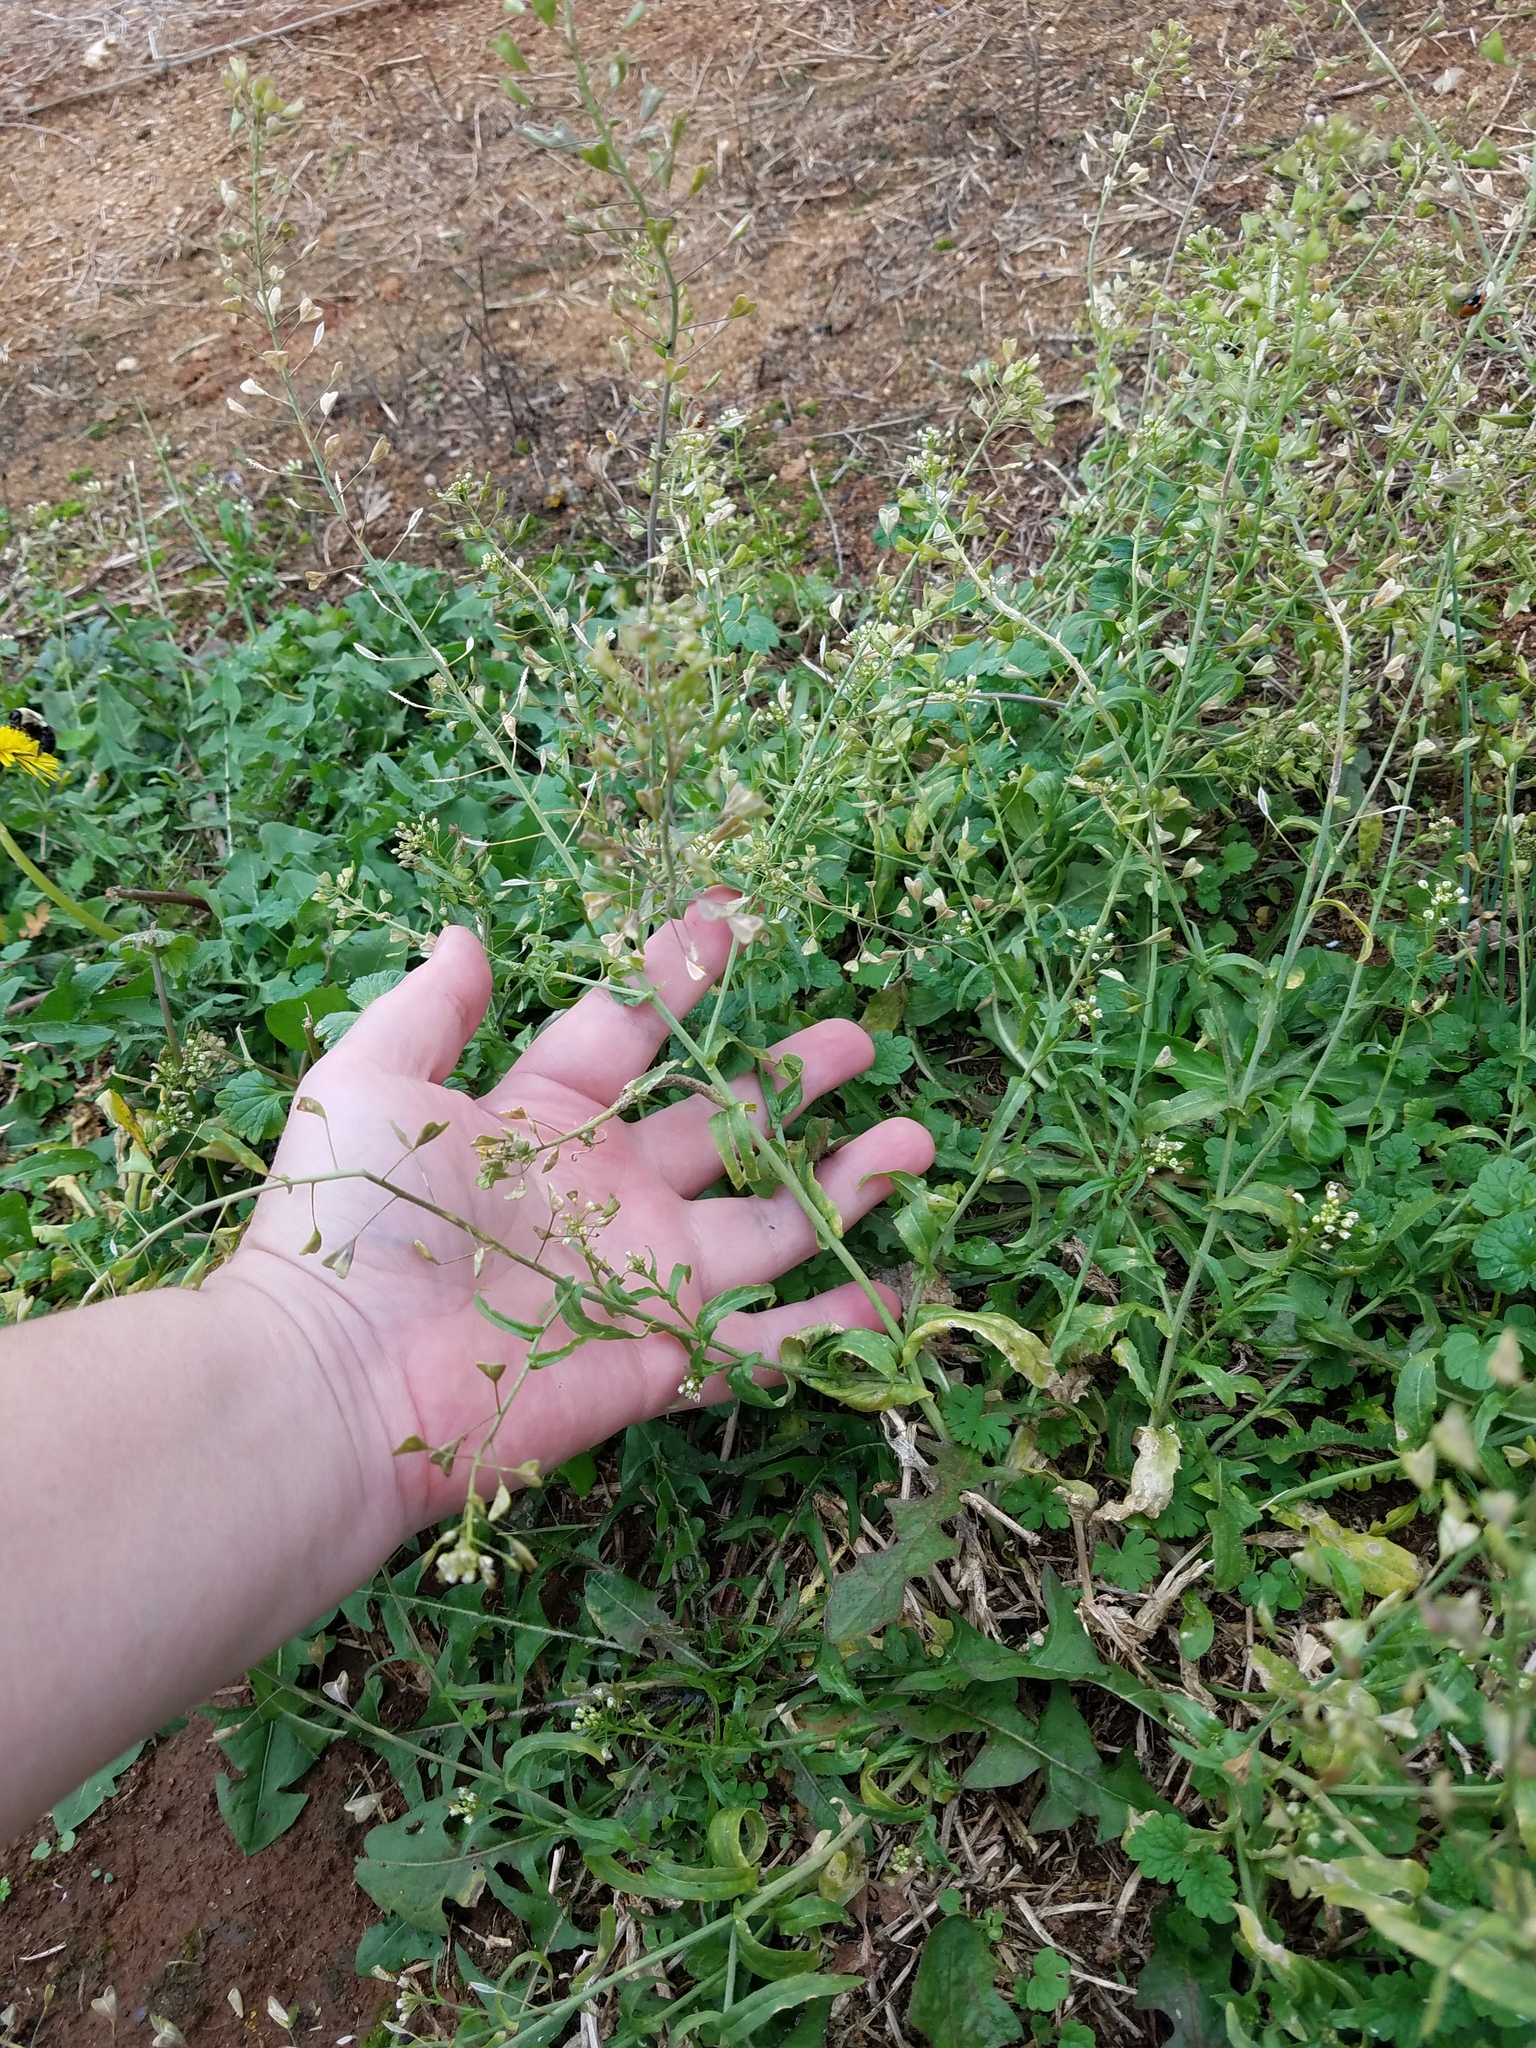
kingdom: Plantae
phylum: Tracheophyta
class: Magnoliopsida
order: Brassicales
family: Brassicaceae
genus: Capsella
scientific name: Capsella bursa-pastoris
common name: Shepherd's purse
